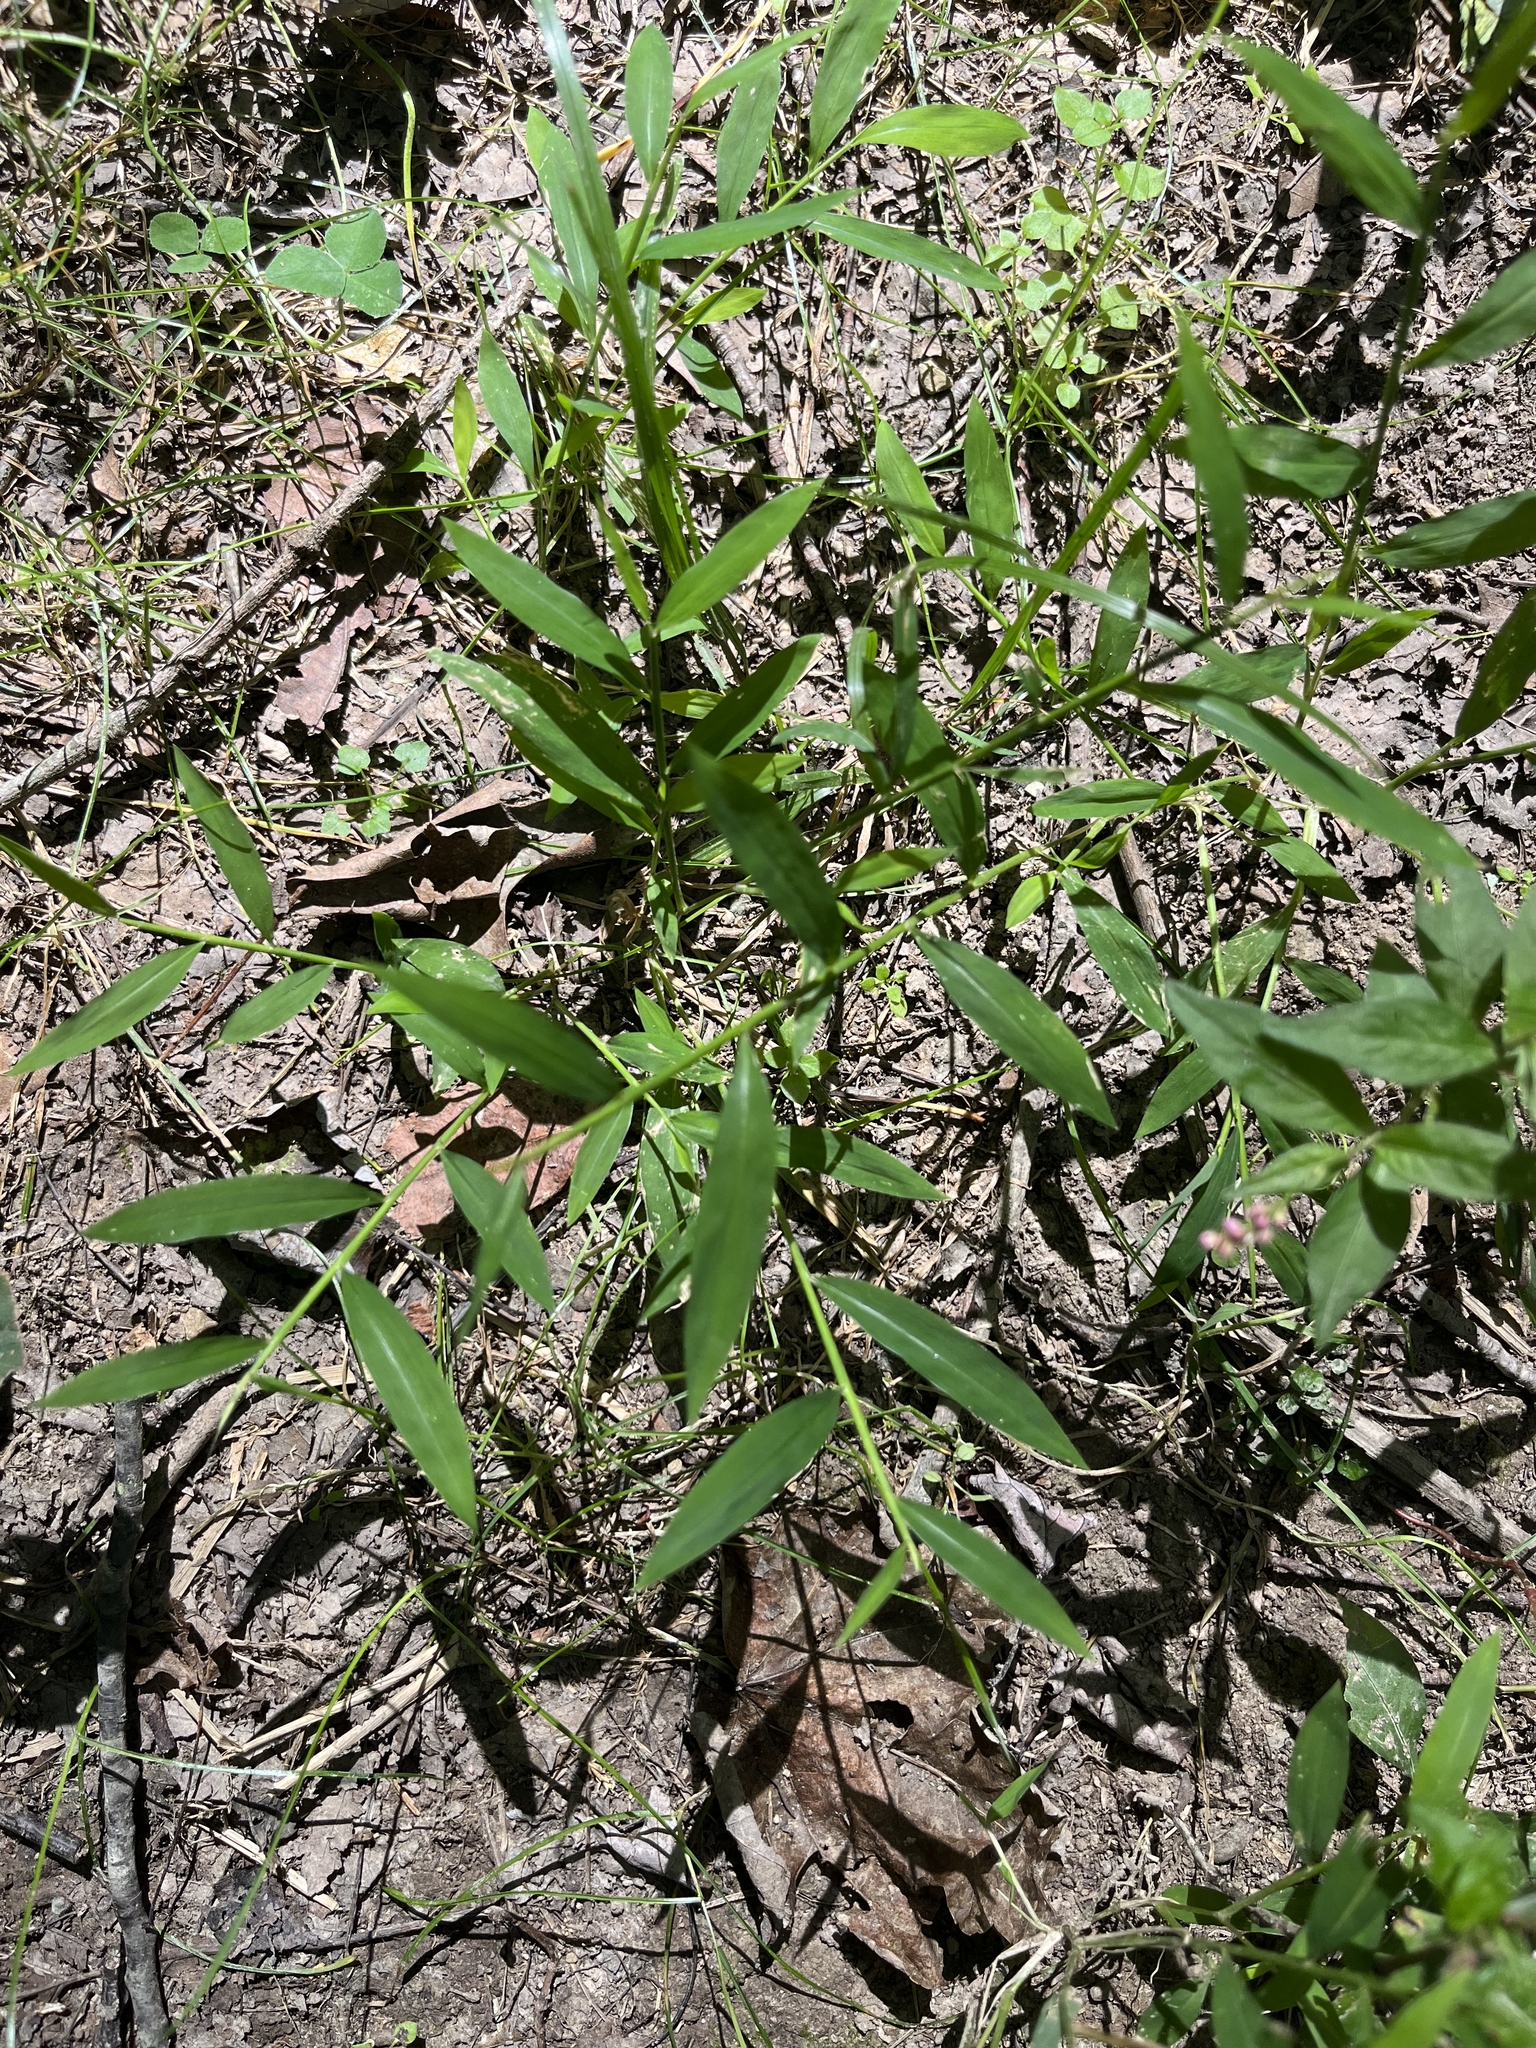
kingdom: Plantae
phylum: Tracheophyta
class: Liliopsida
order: Poales
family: Poaceae
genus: Microstegium
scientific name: Microstegium vimineum
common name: Japanese stiltgrass
